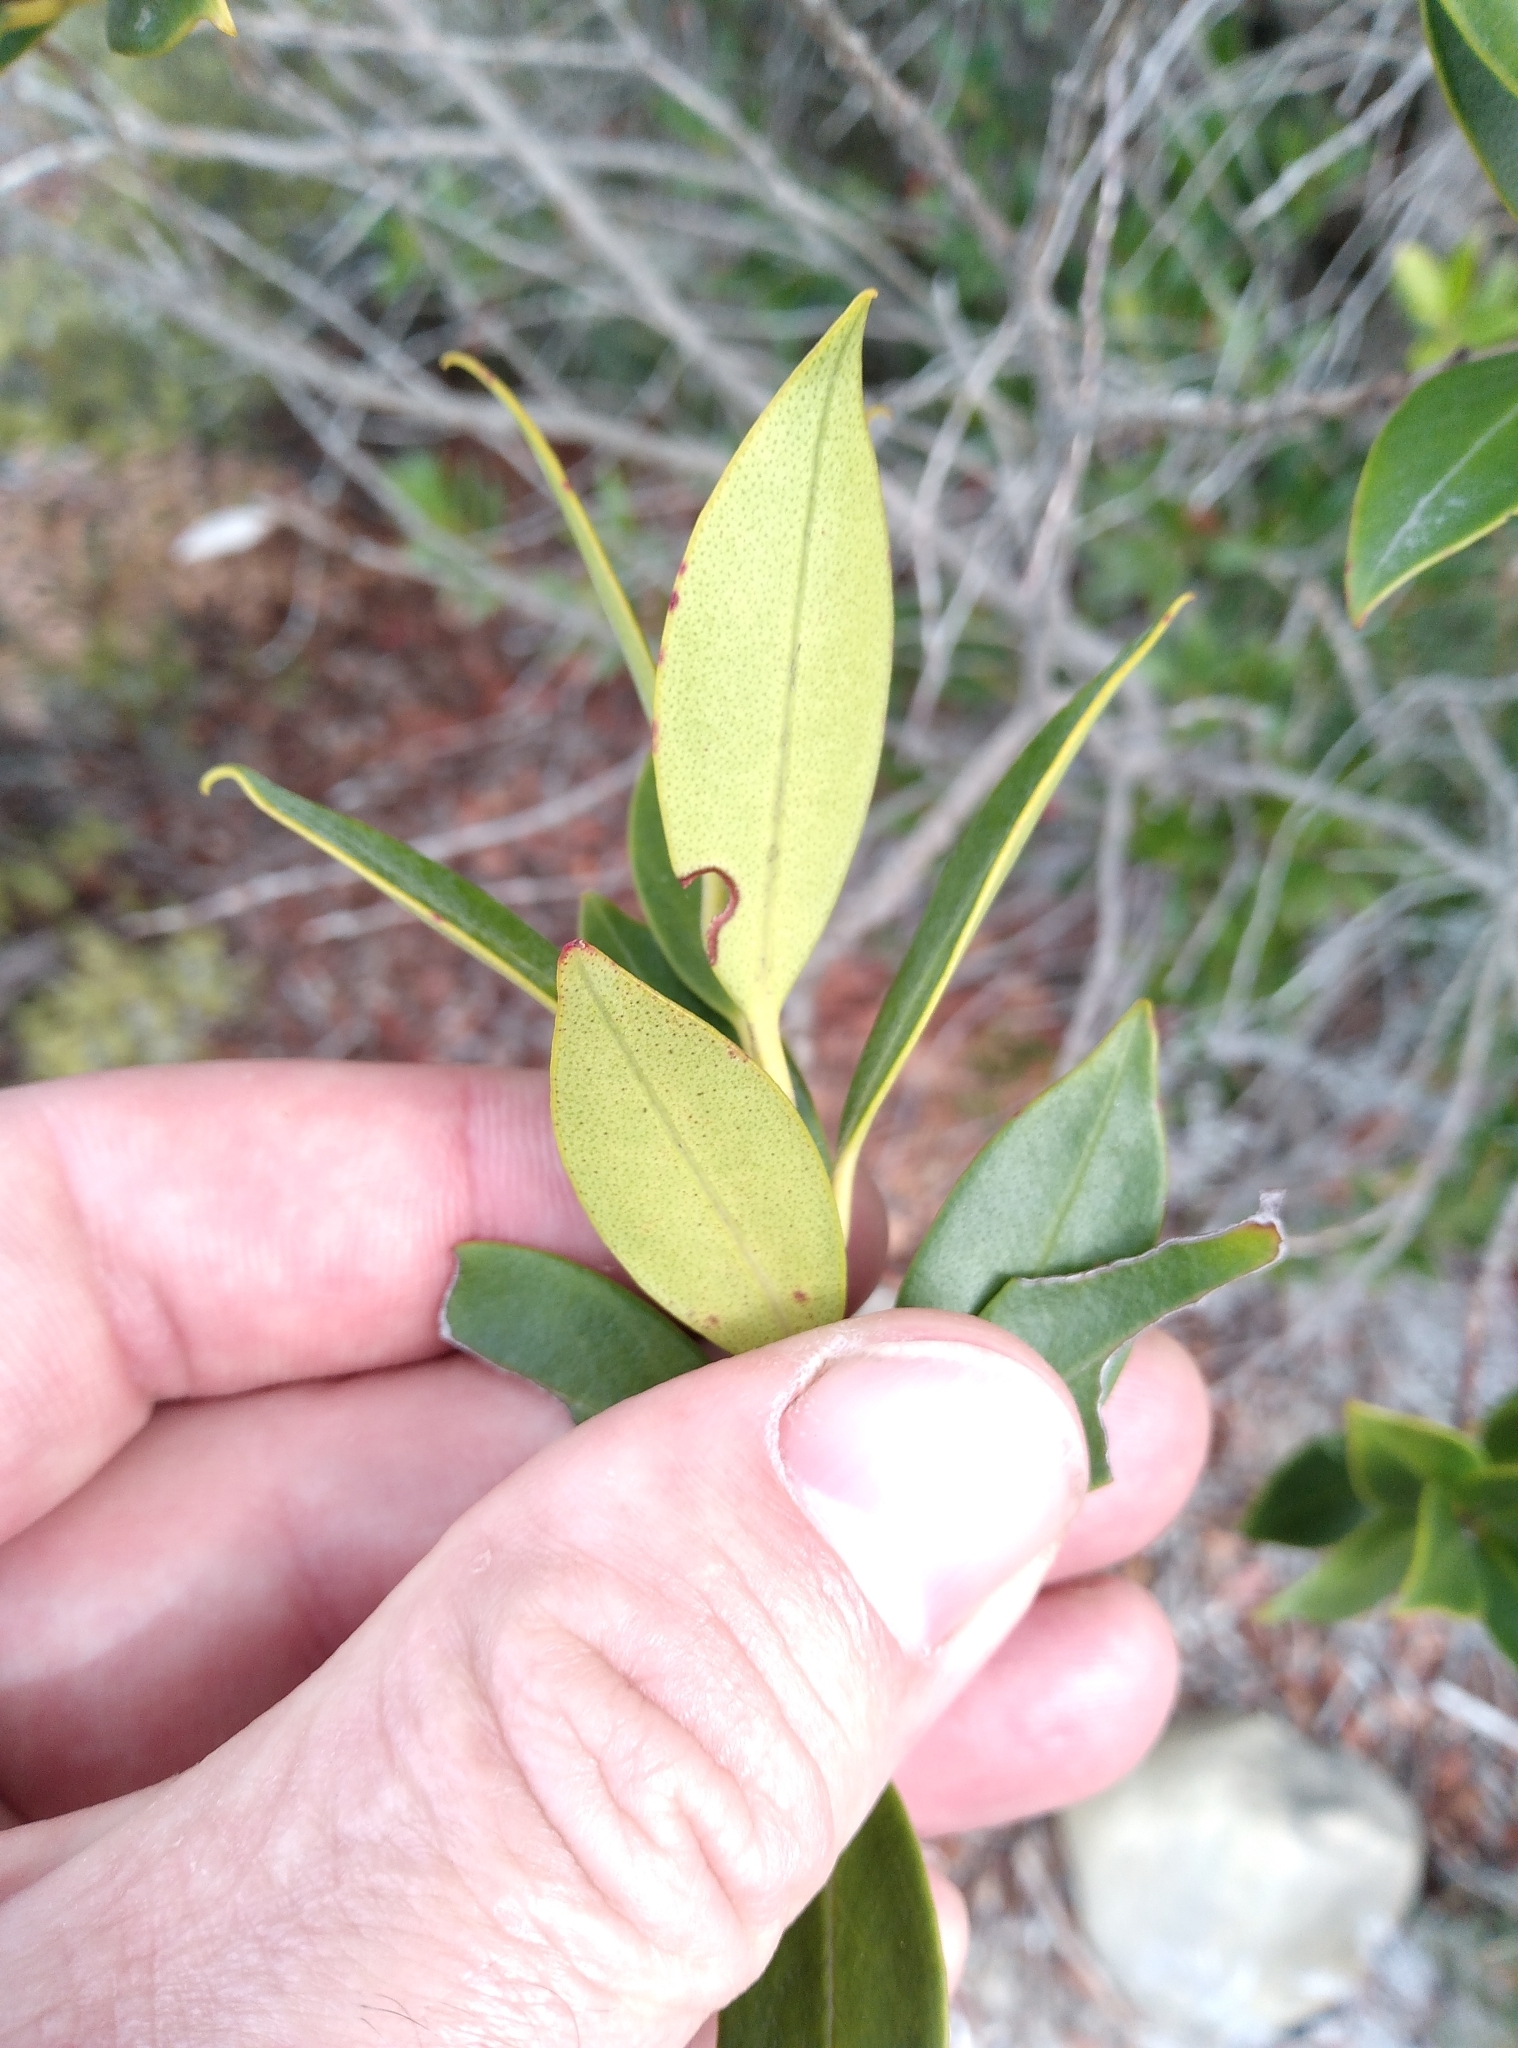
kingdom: Plantae
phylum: Tracheophyta
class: Magnoliopsida
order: Myrtales
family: Myrtaceae
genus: Metrosideros
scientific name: Metrosideros umbellata
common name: Southern rata
